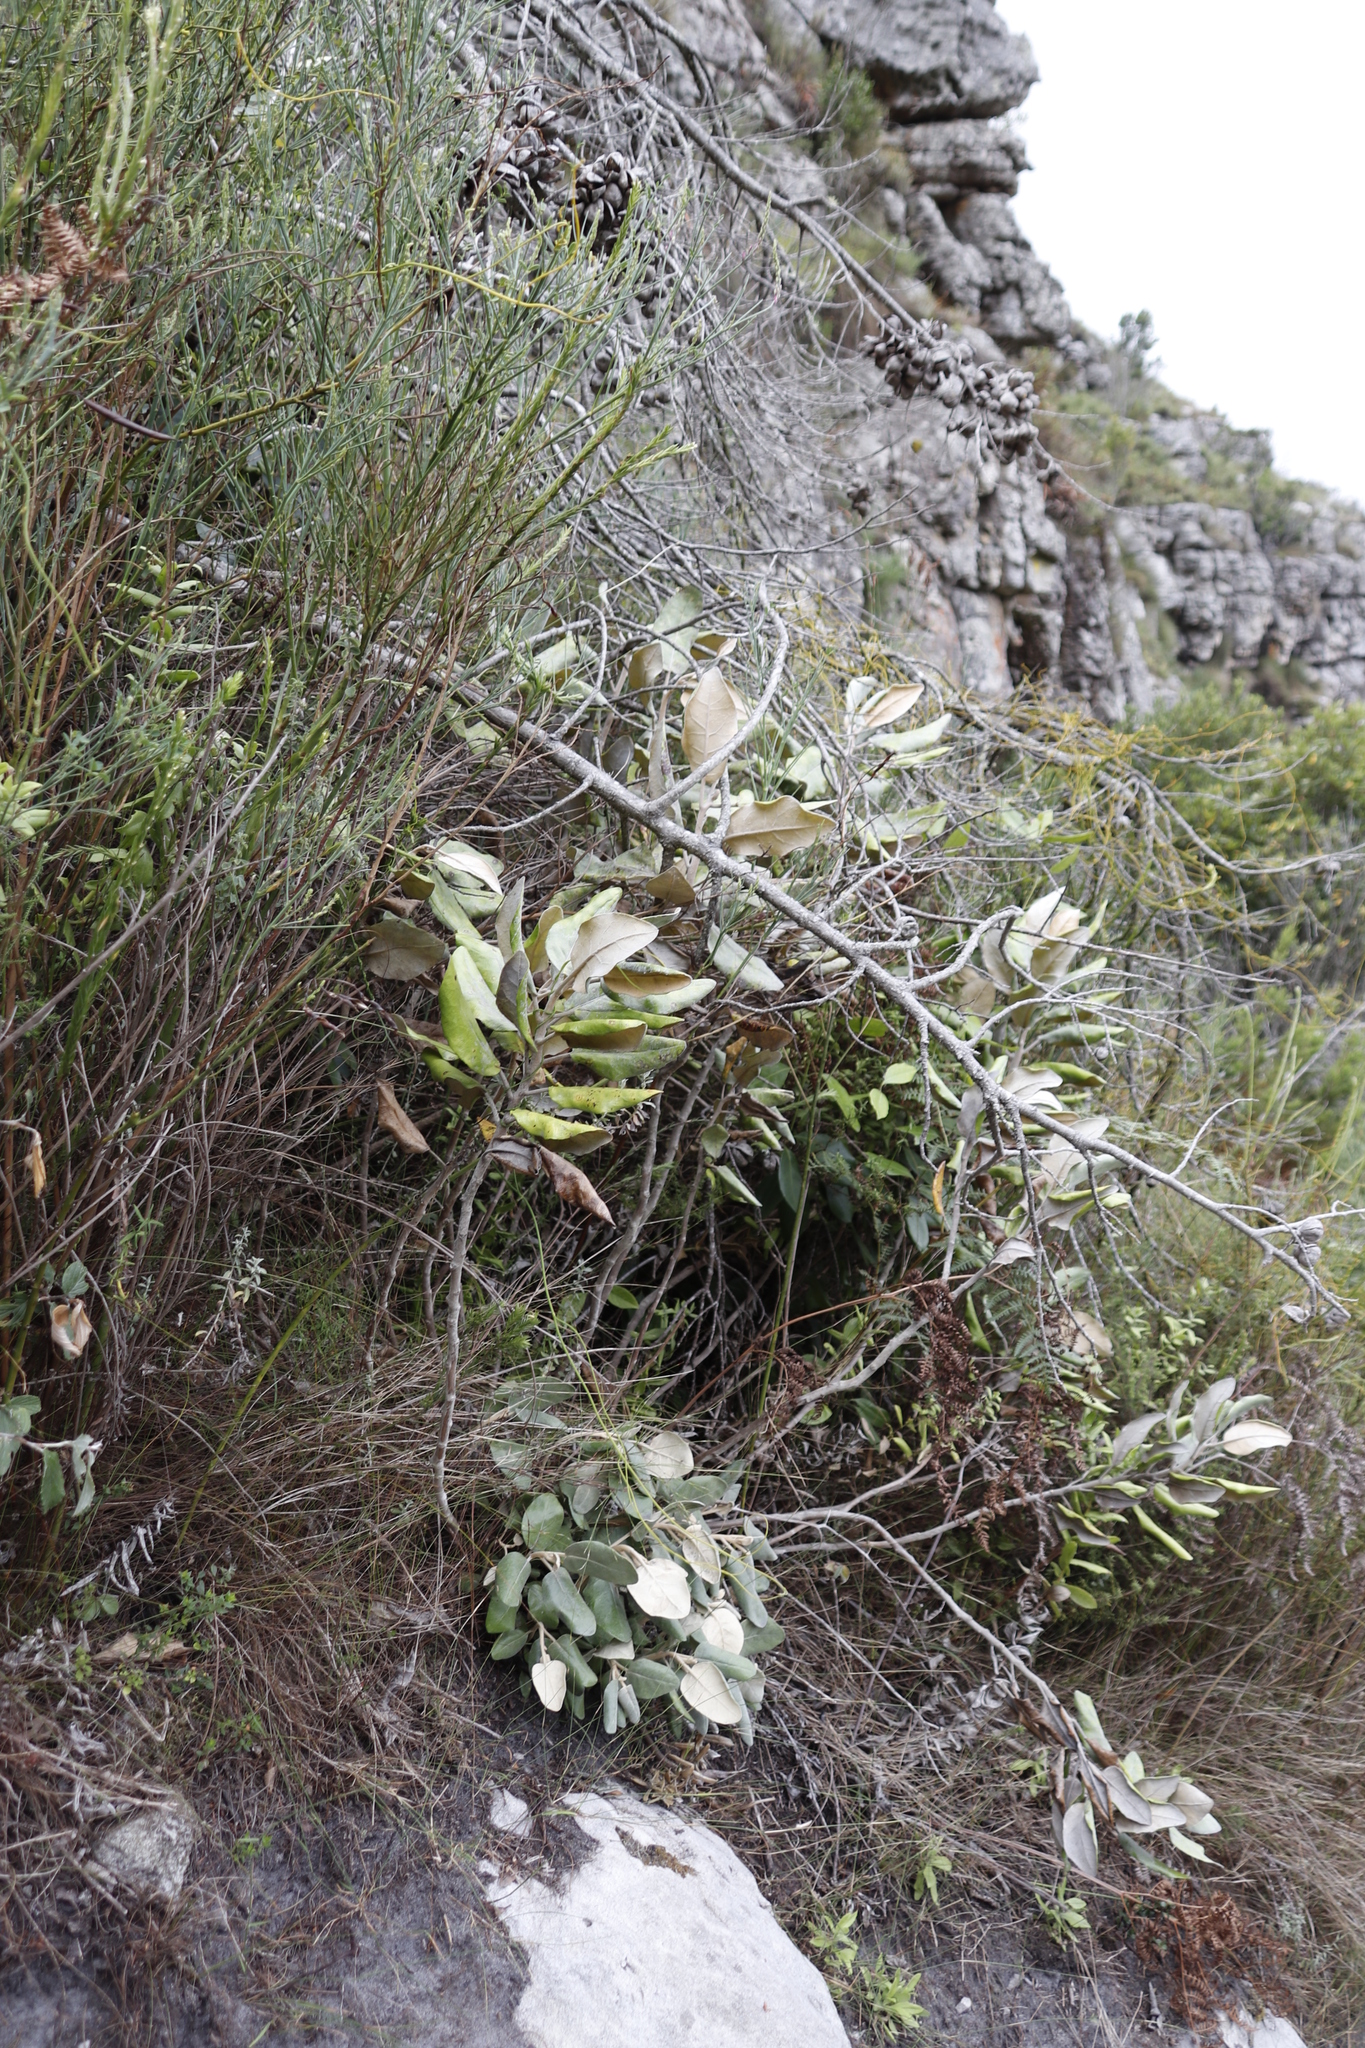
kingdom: Plantae
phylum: Tracheophyta
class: Magnoliopsida
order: Asterales
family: Asteraceae
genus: Capelio
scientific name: Capelio tabularis
